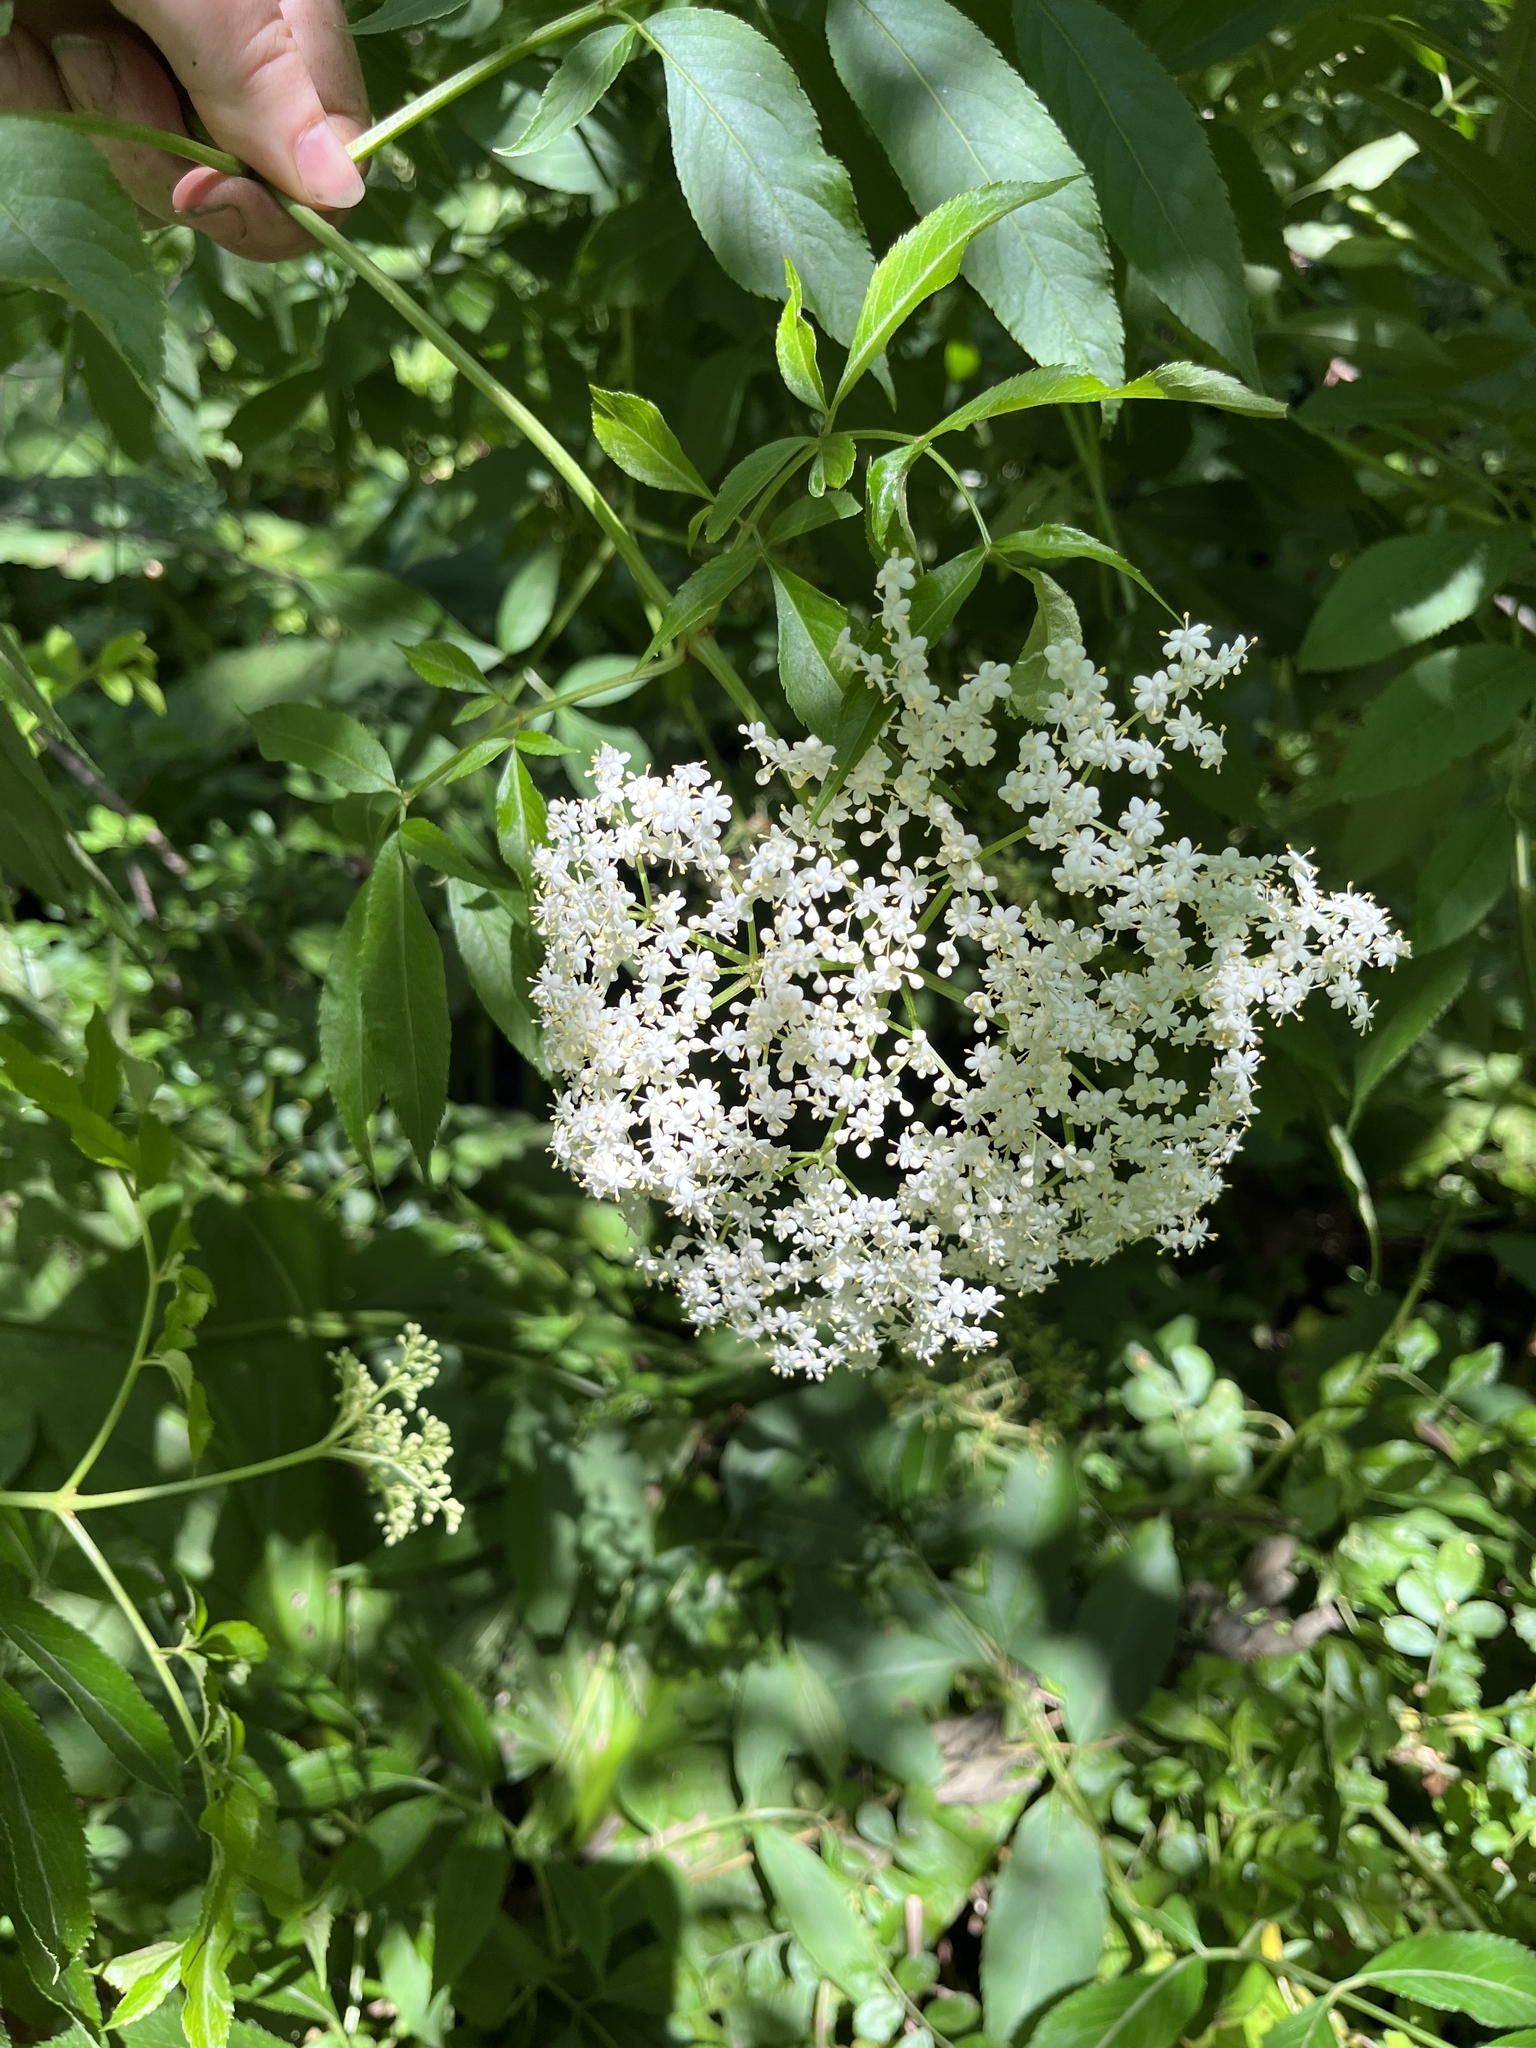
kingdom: Plantae
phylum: Tracheophyta
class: Magnoliopsida
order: Dipsacales
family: Viburnaceae
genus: Sambucus
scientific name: Sambucus canadensis
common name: American elder
